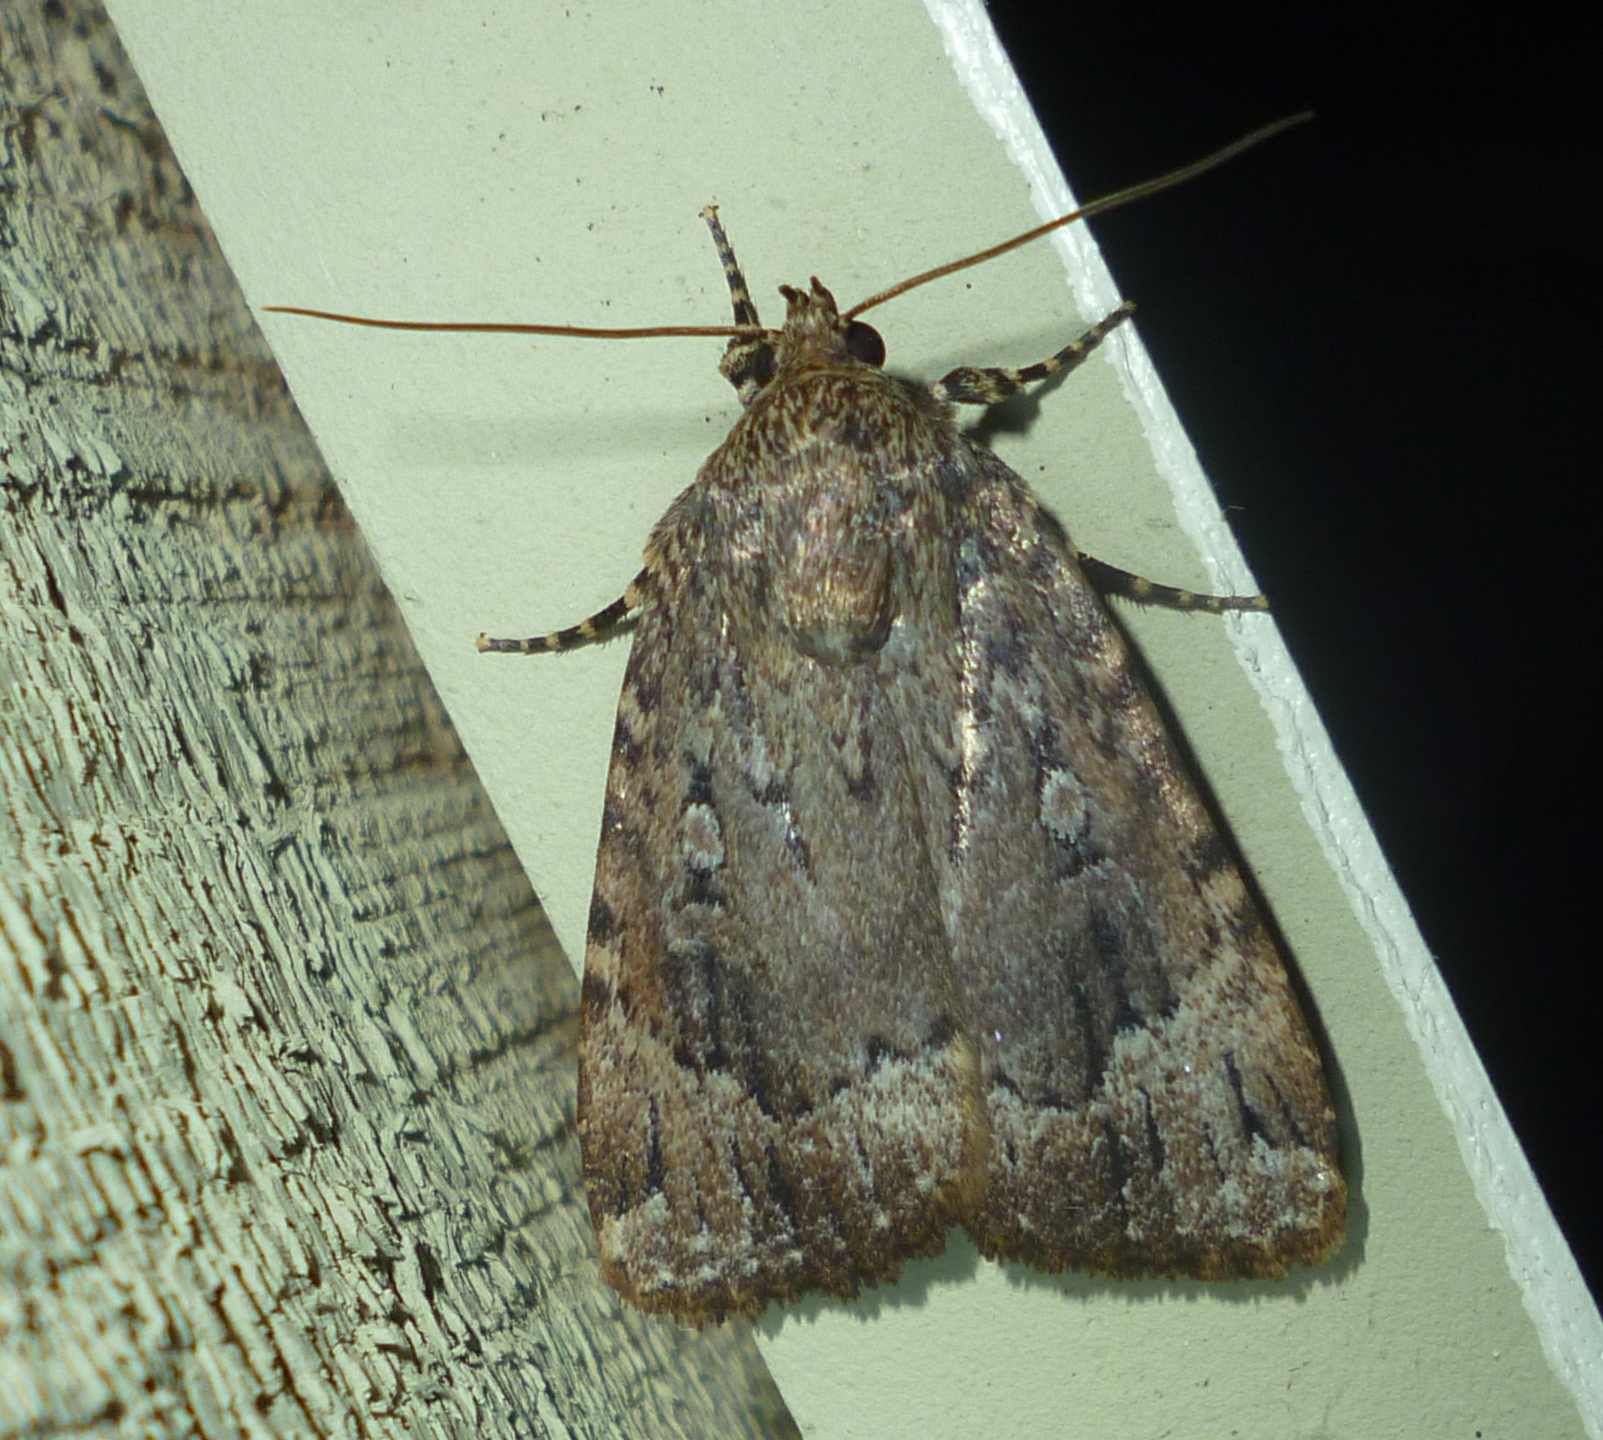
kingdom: Animalia
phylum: Arthropoda
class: Insecta
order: Lepidoptera
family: Noctuidae
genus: Amphipyra
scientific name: Amphipyra pyramidoides
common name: American copper underwing
